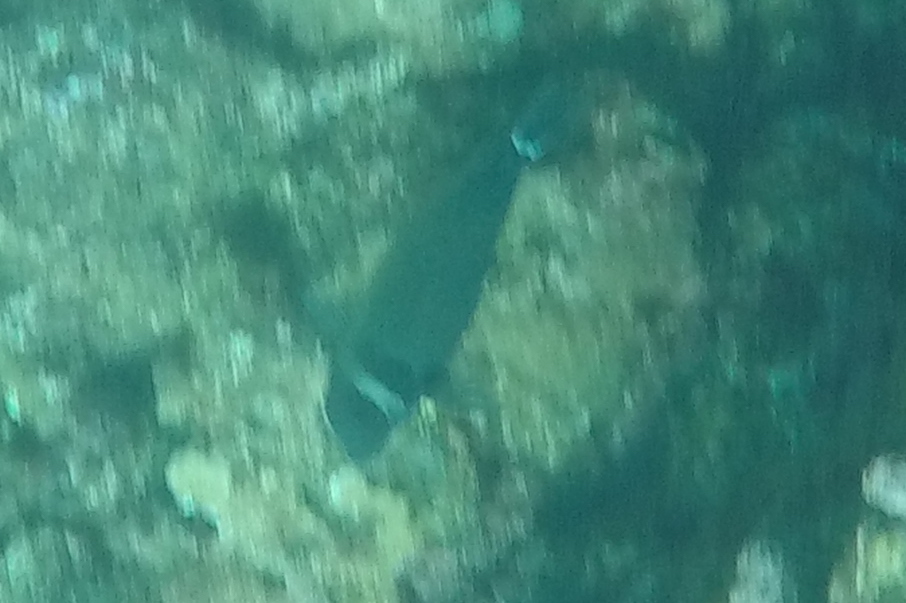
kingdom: Animalia
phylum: Chordata
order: Perciformes
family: Acanthuridae
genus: Acanthurus
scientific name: Acanthurus leucopareius
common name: Head-band surgeonfish
